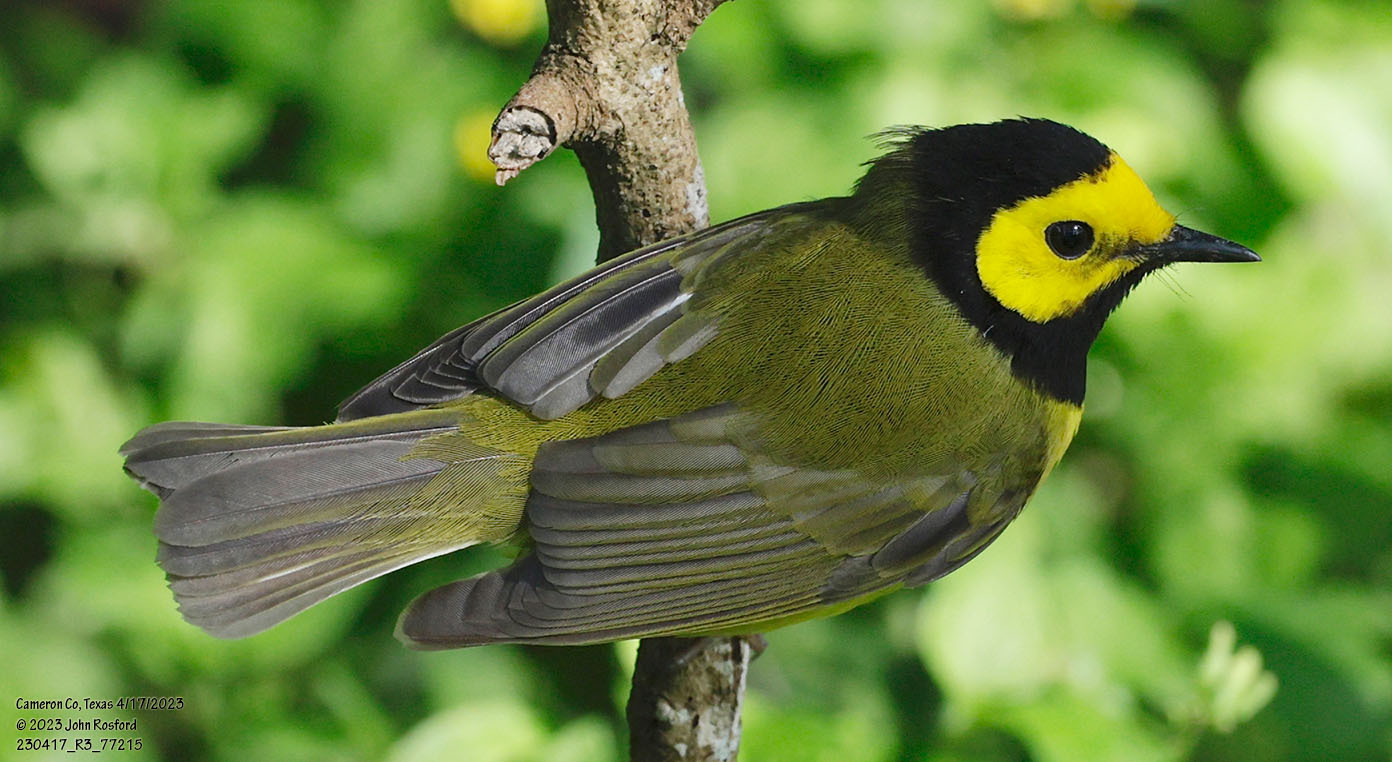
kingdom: Animalia
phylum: Chordata
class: Aves
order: Passeriformes
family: Parulidae
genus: Setophaga
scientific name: Setophaga citrina
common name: Hooded warbler
